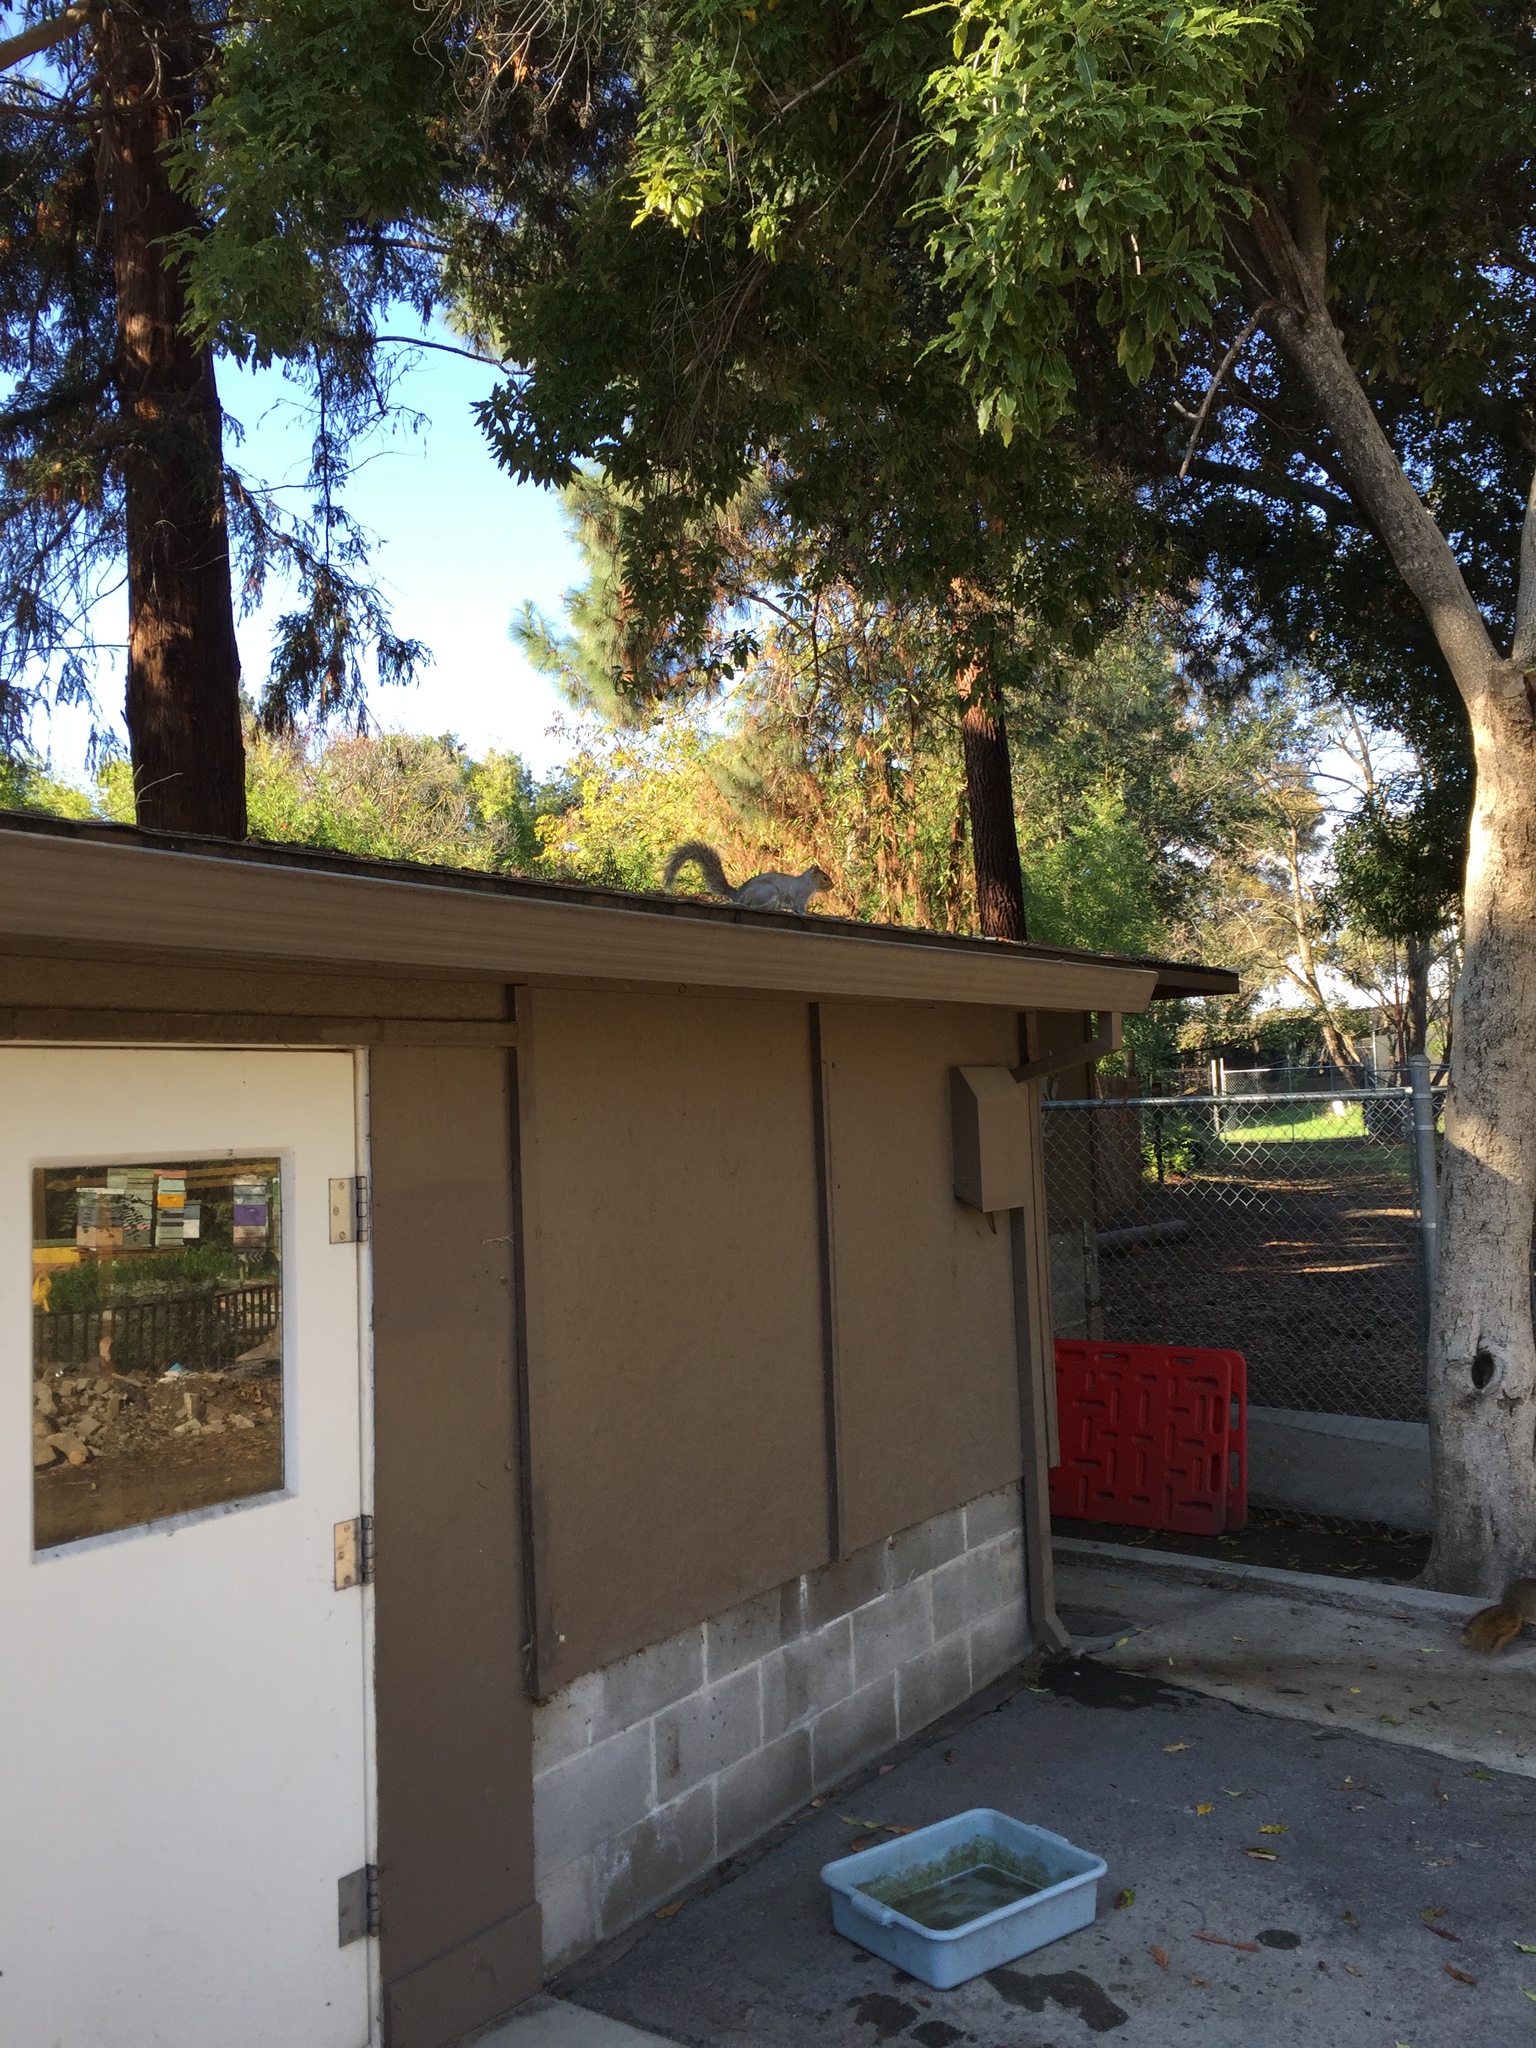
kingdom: Animalia
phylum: Chordata
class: Mammalia
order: Rodentia
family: Sciuridae
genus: Sciurus
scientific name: Sciurus carolinensis
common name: Eastern gray squirrel
